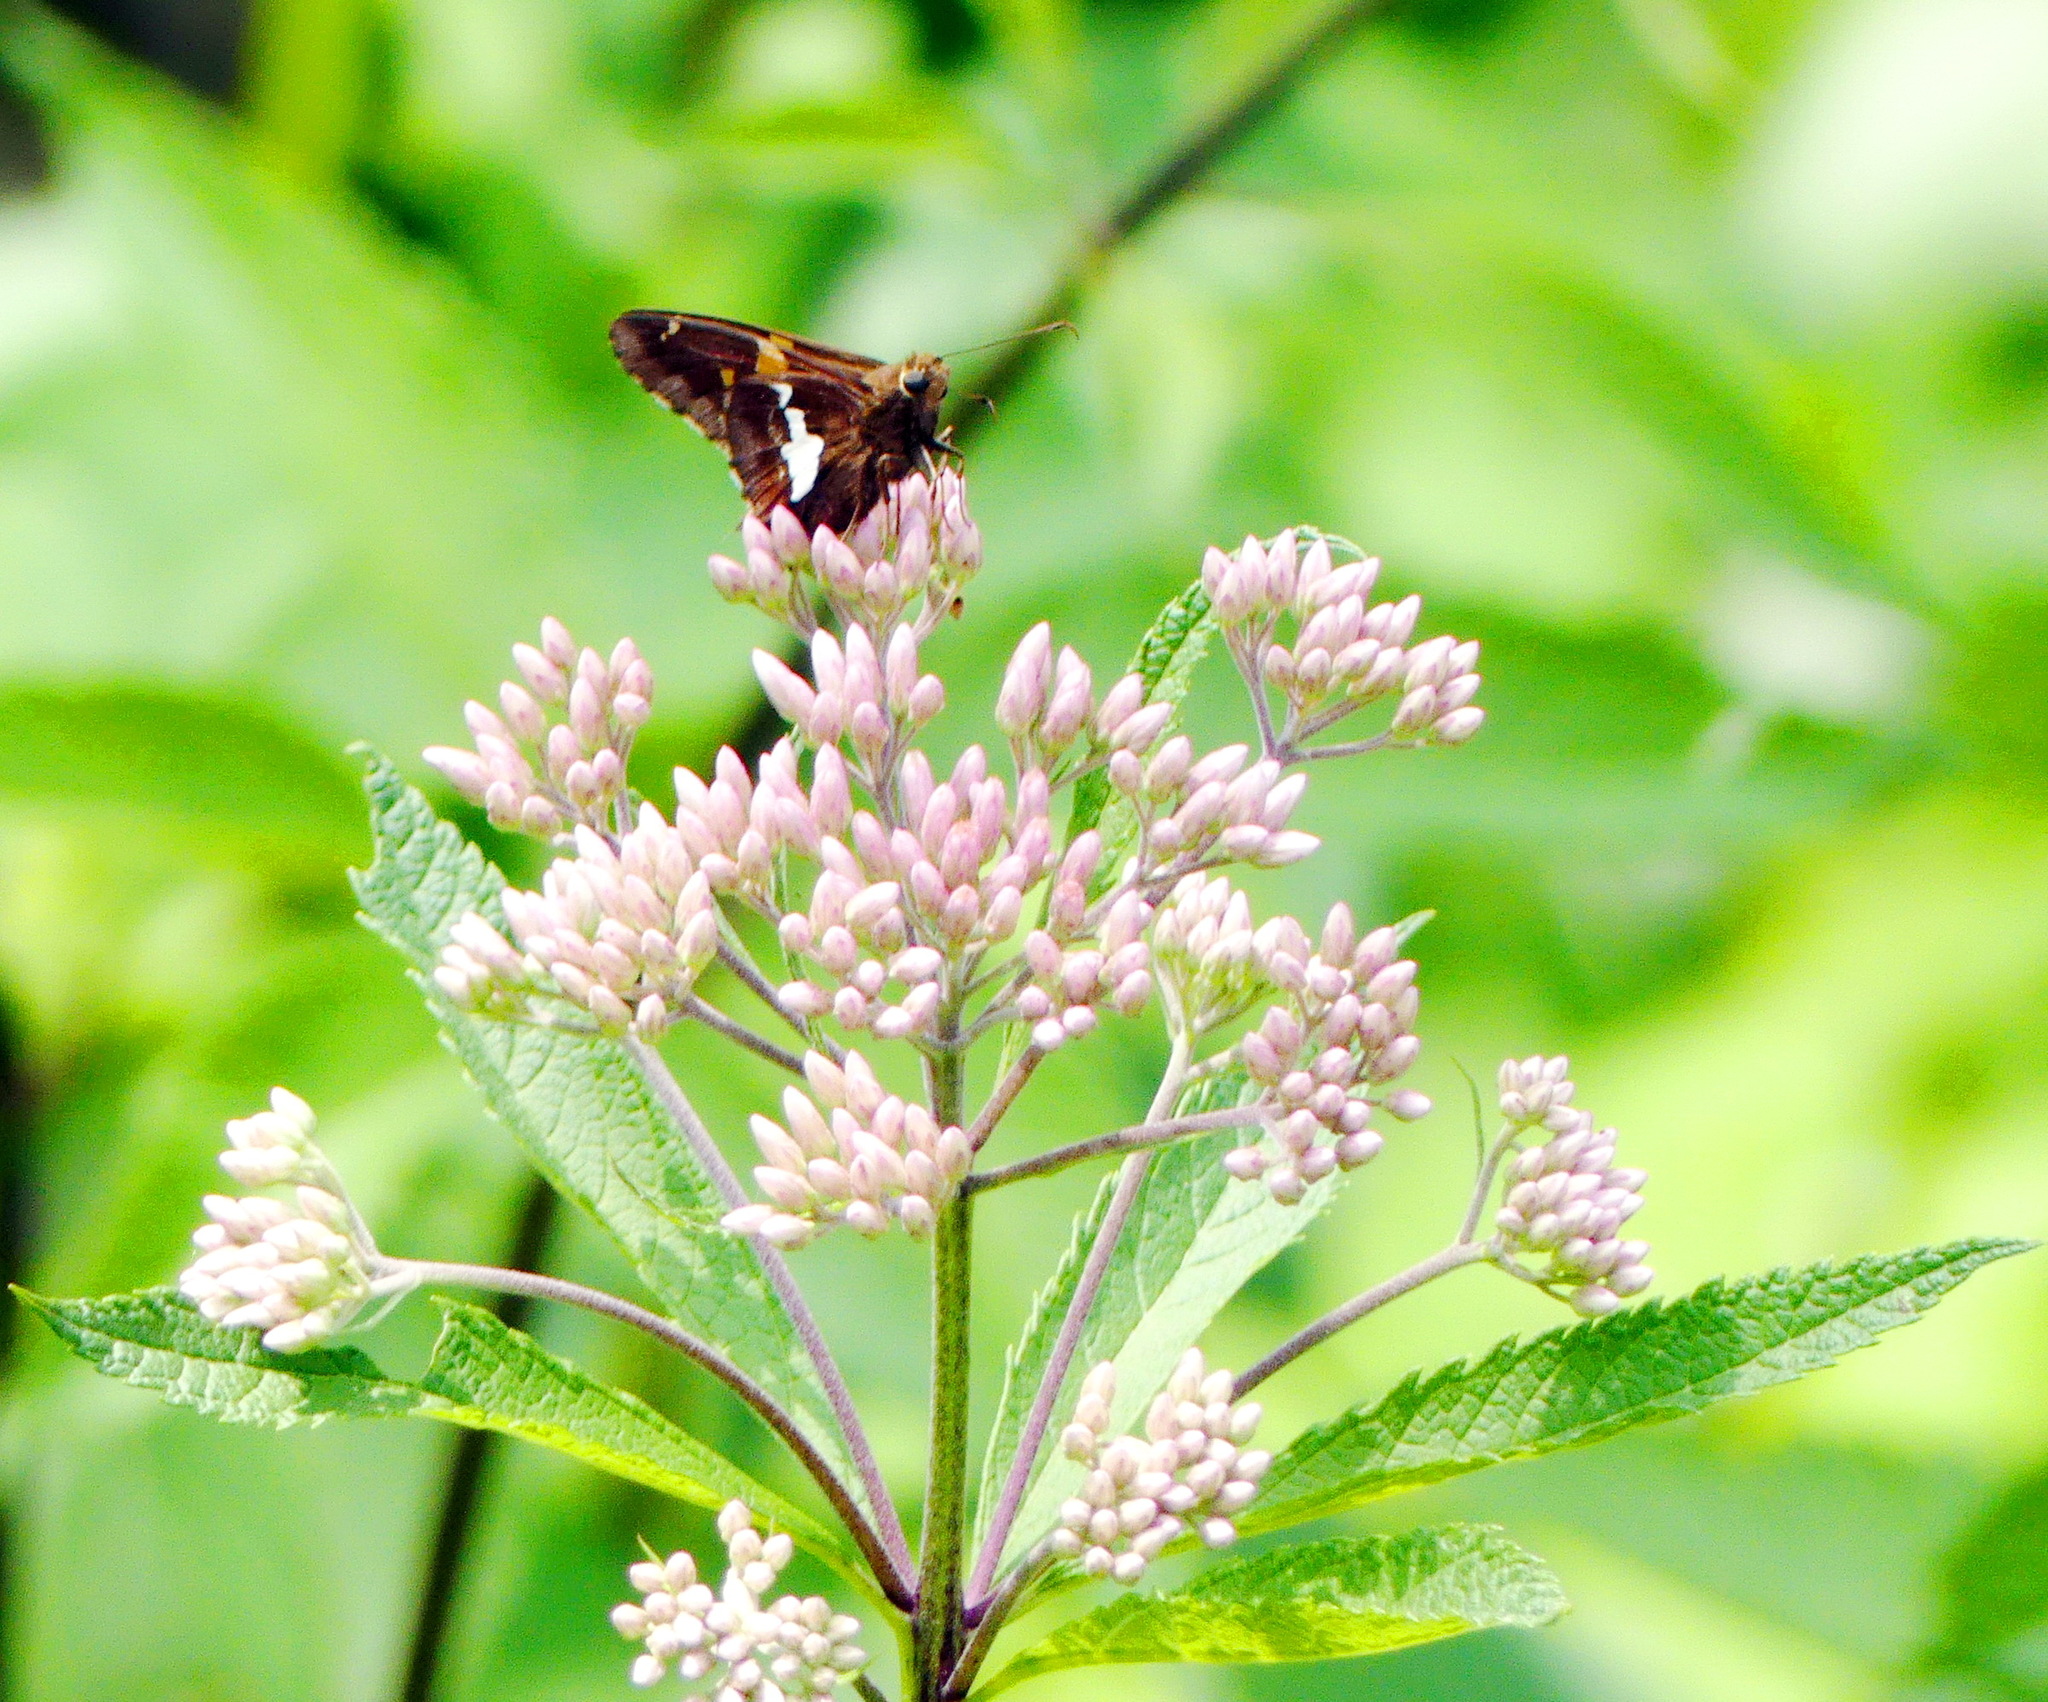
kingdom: Animalia
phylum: Arthropoda
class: Insecta
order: Lepidoptera
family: Hesperiidae
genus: Epargyreus
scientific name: Epargyreus clarus
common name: Silver-spotted skipper
